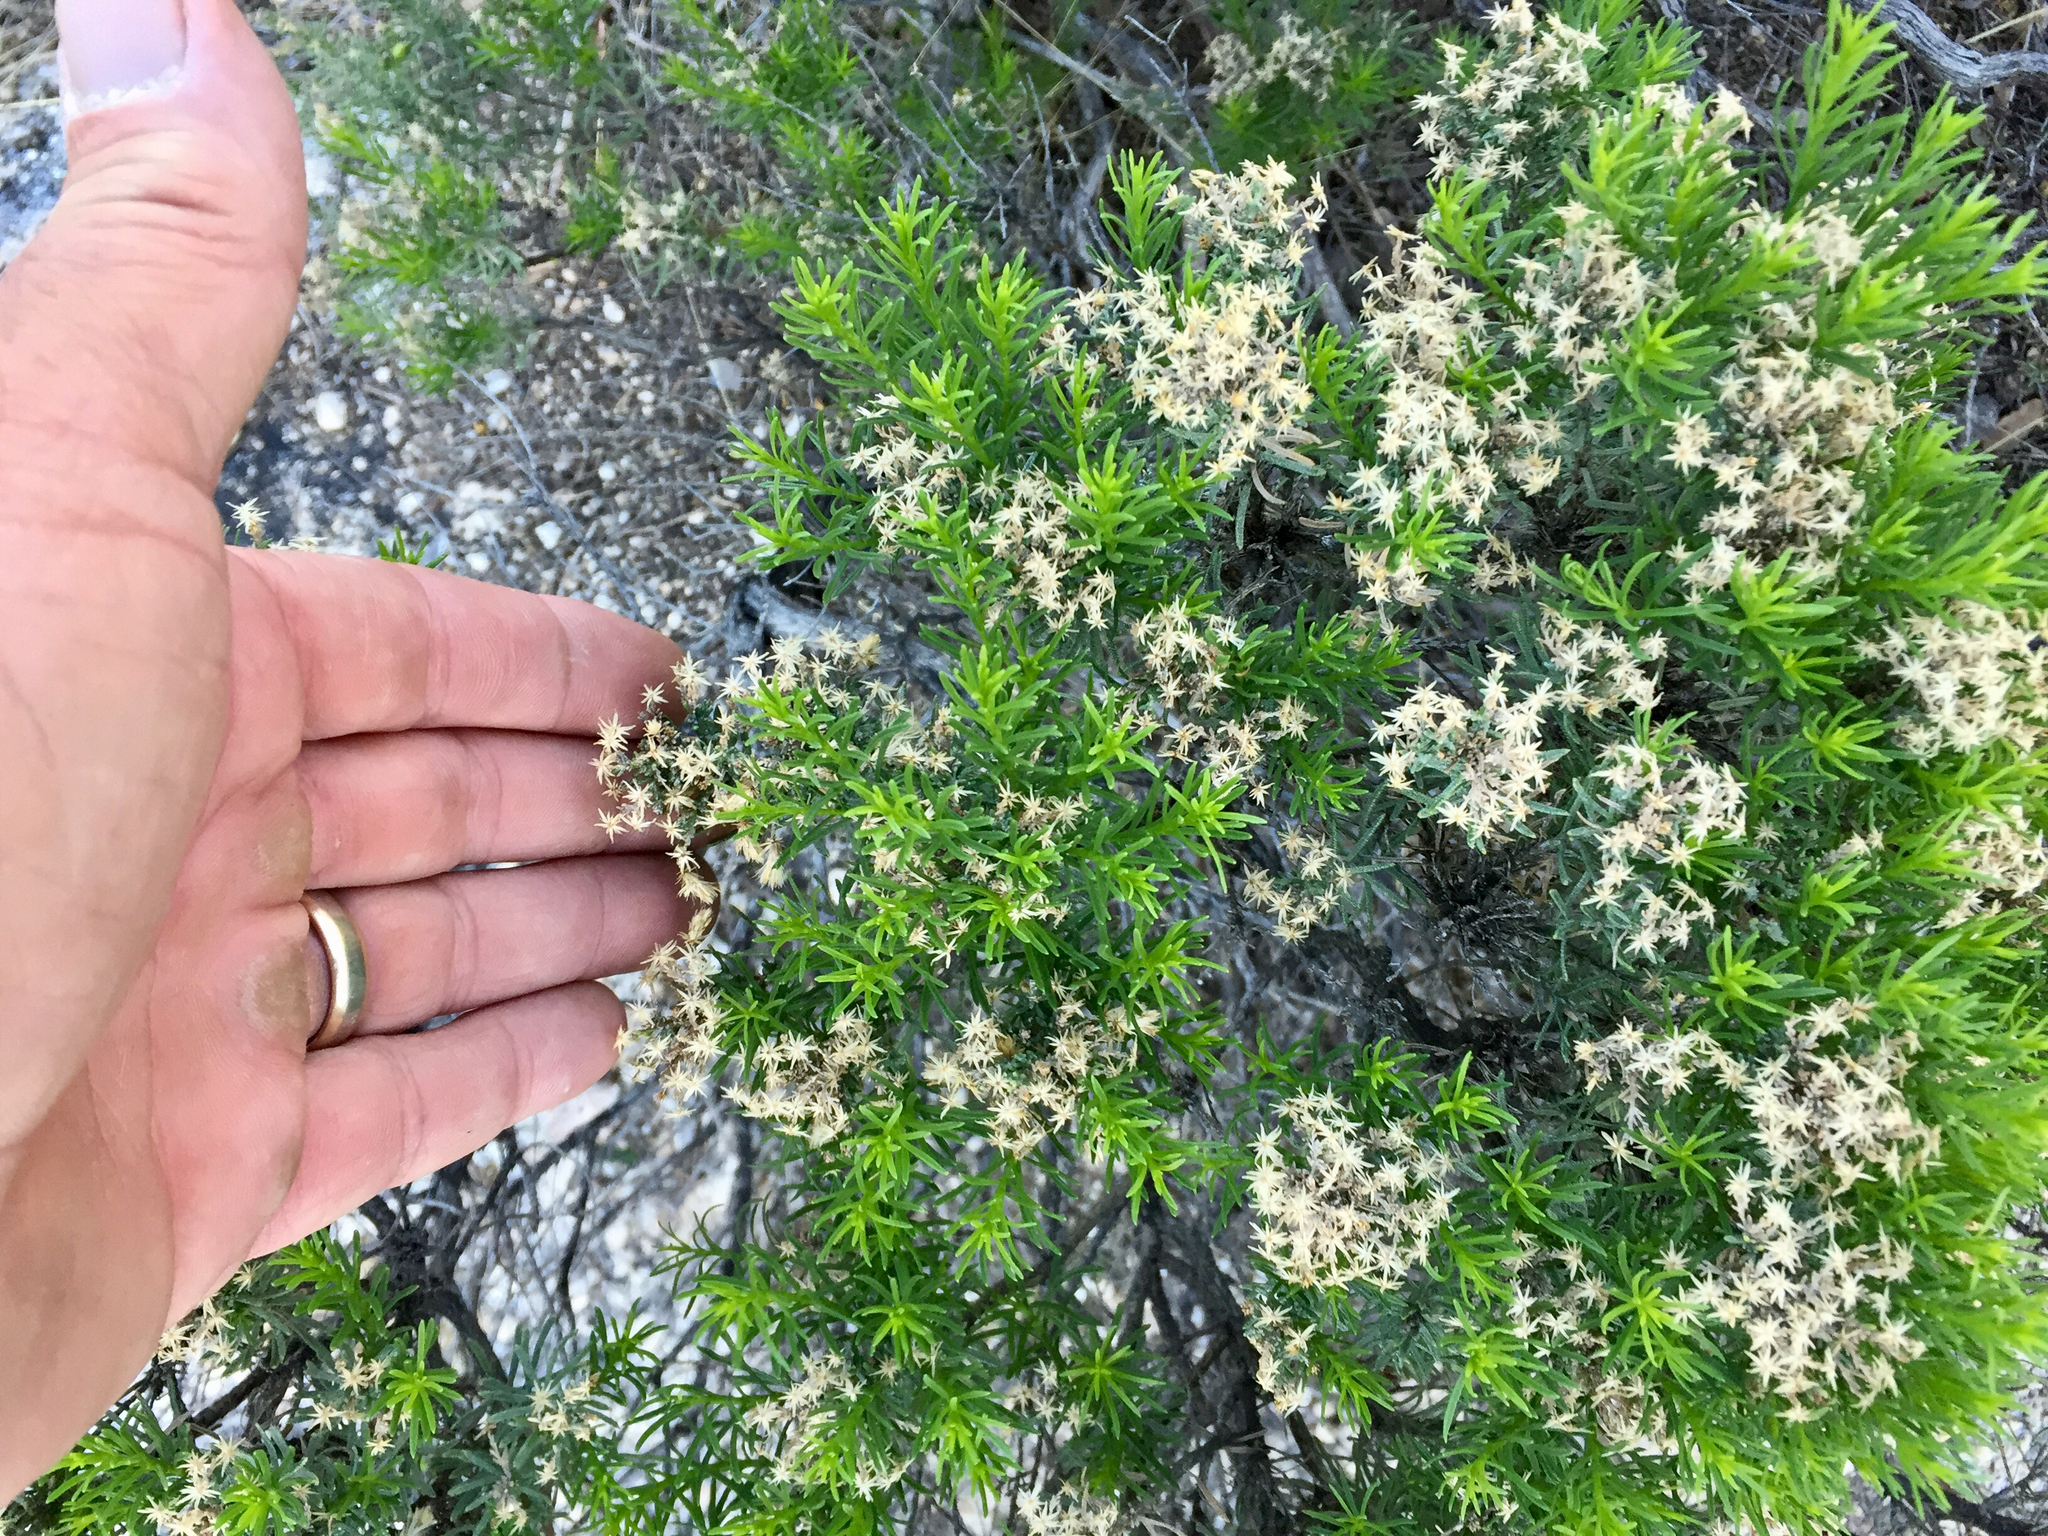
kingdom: Plantae
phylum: Tracheophyta
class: Magnoliopsida
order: Asterales
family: Asteraceae
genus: Ericameria
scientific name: Ericameria laricifolia
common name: Turpentine-bush
